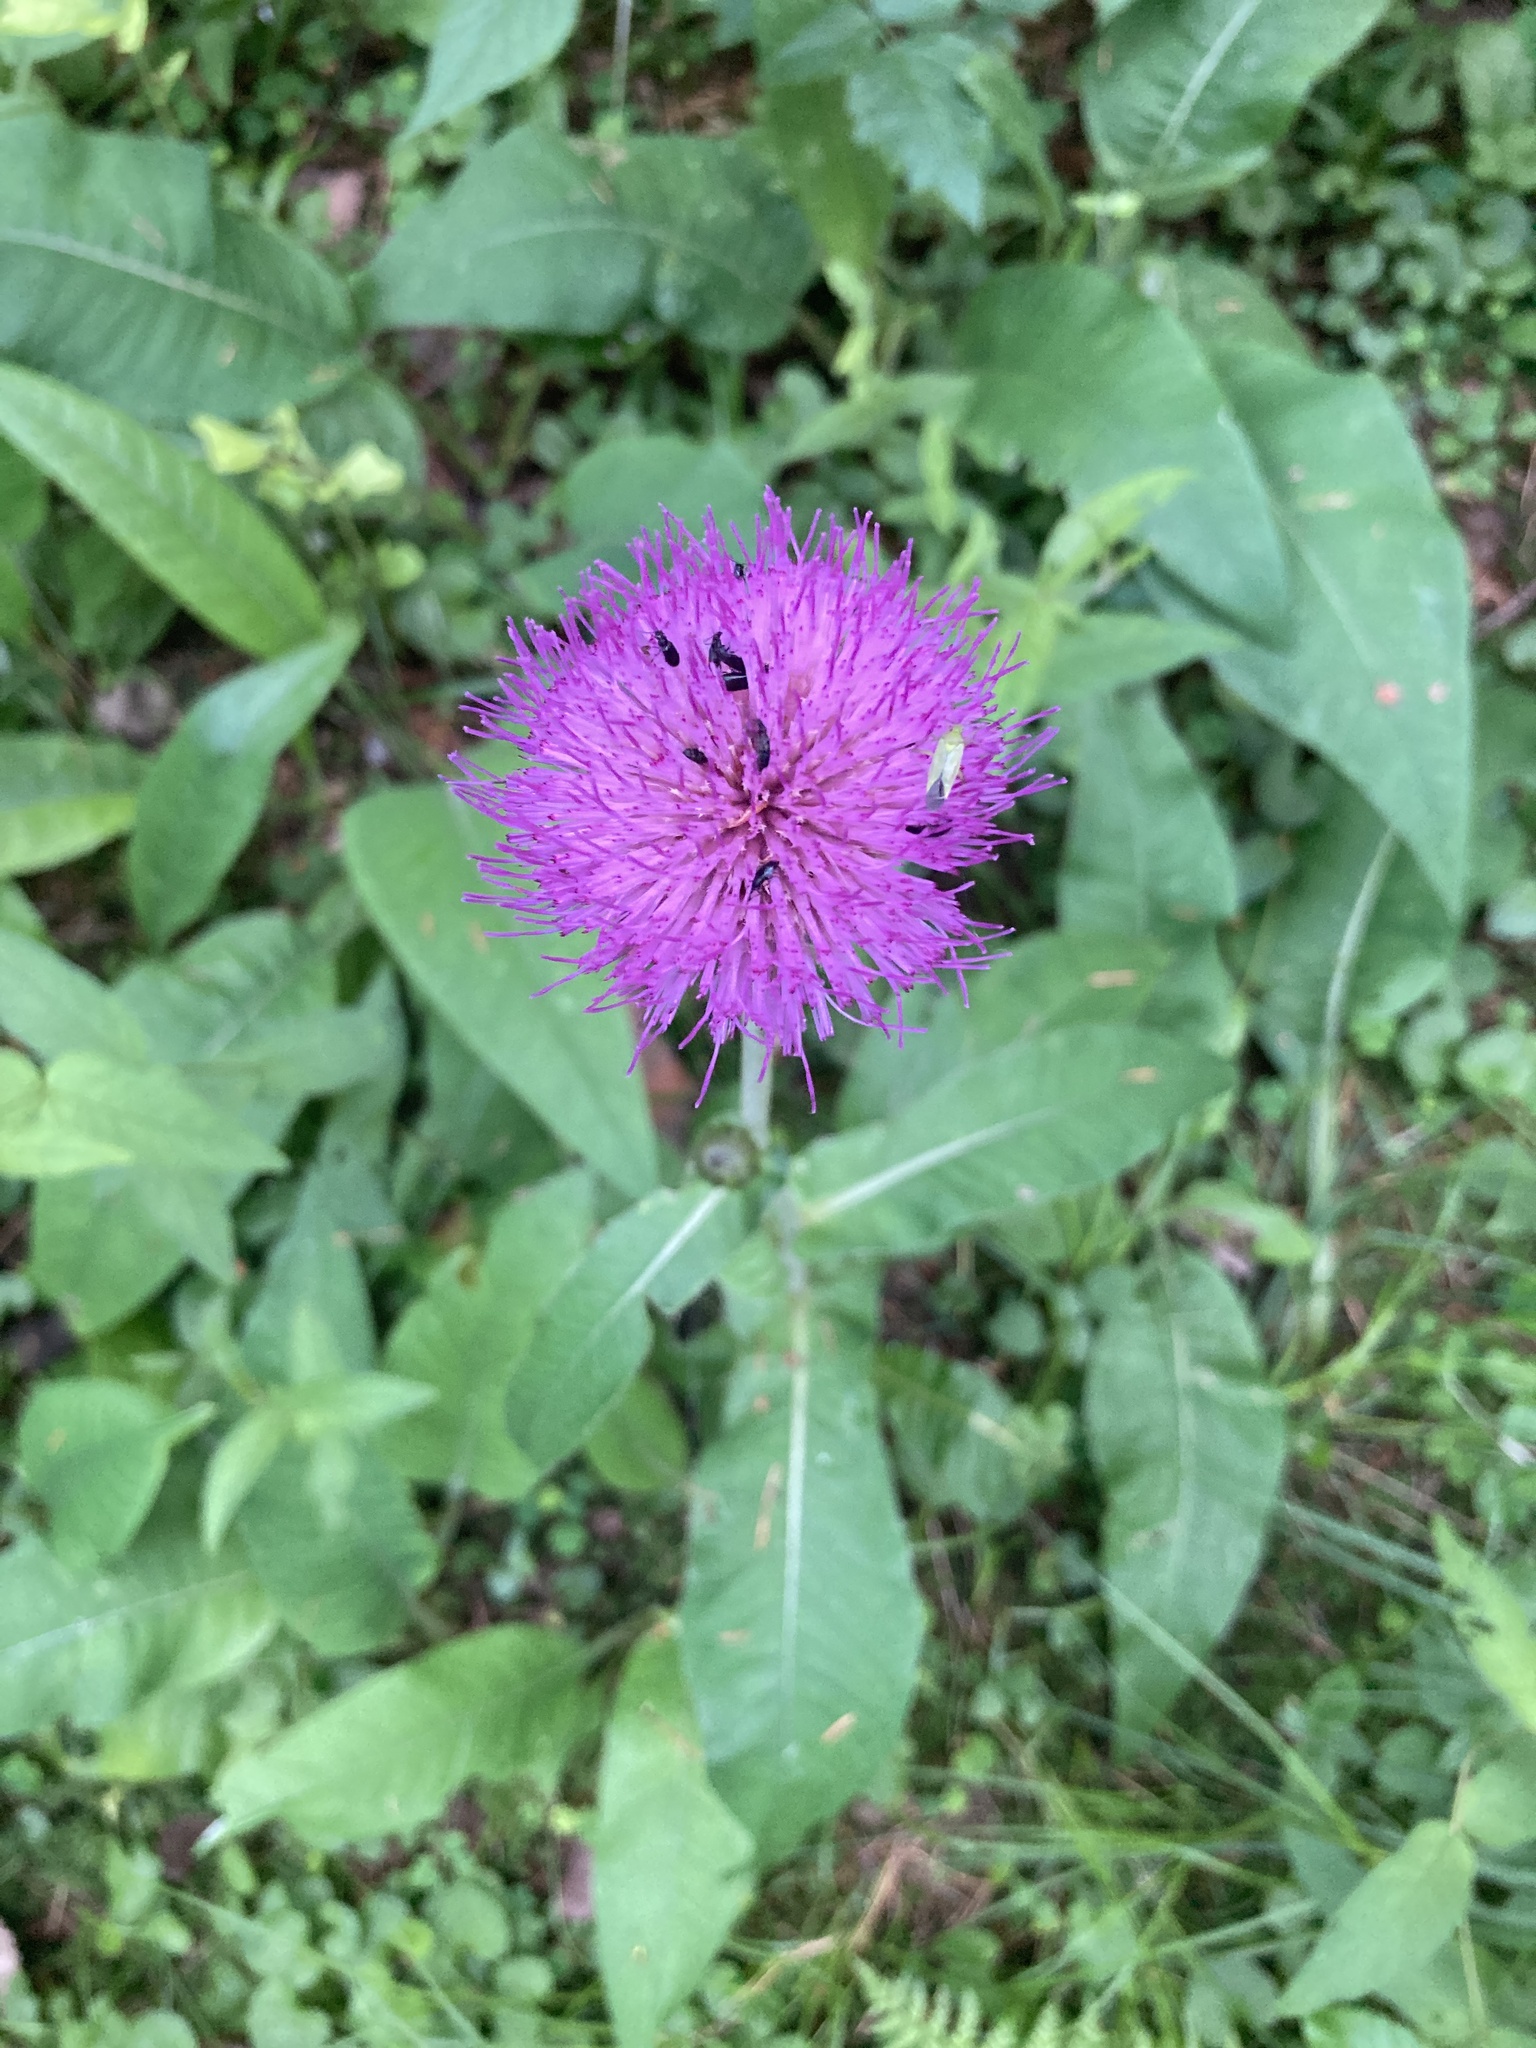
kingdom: Plantae
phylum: Tracheophyta
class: Magnoliopsida
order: Asterales
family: Asteraceae
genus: Cirsium
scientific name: Cirsium heterophyllum
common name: Melancholy thistle
